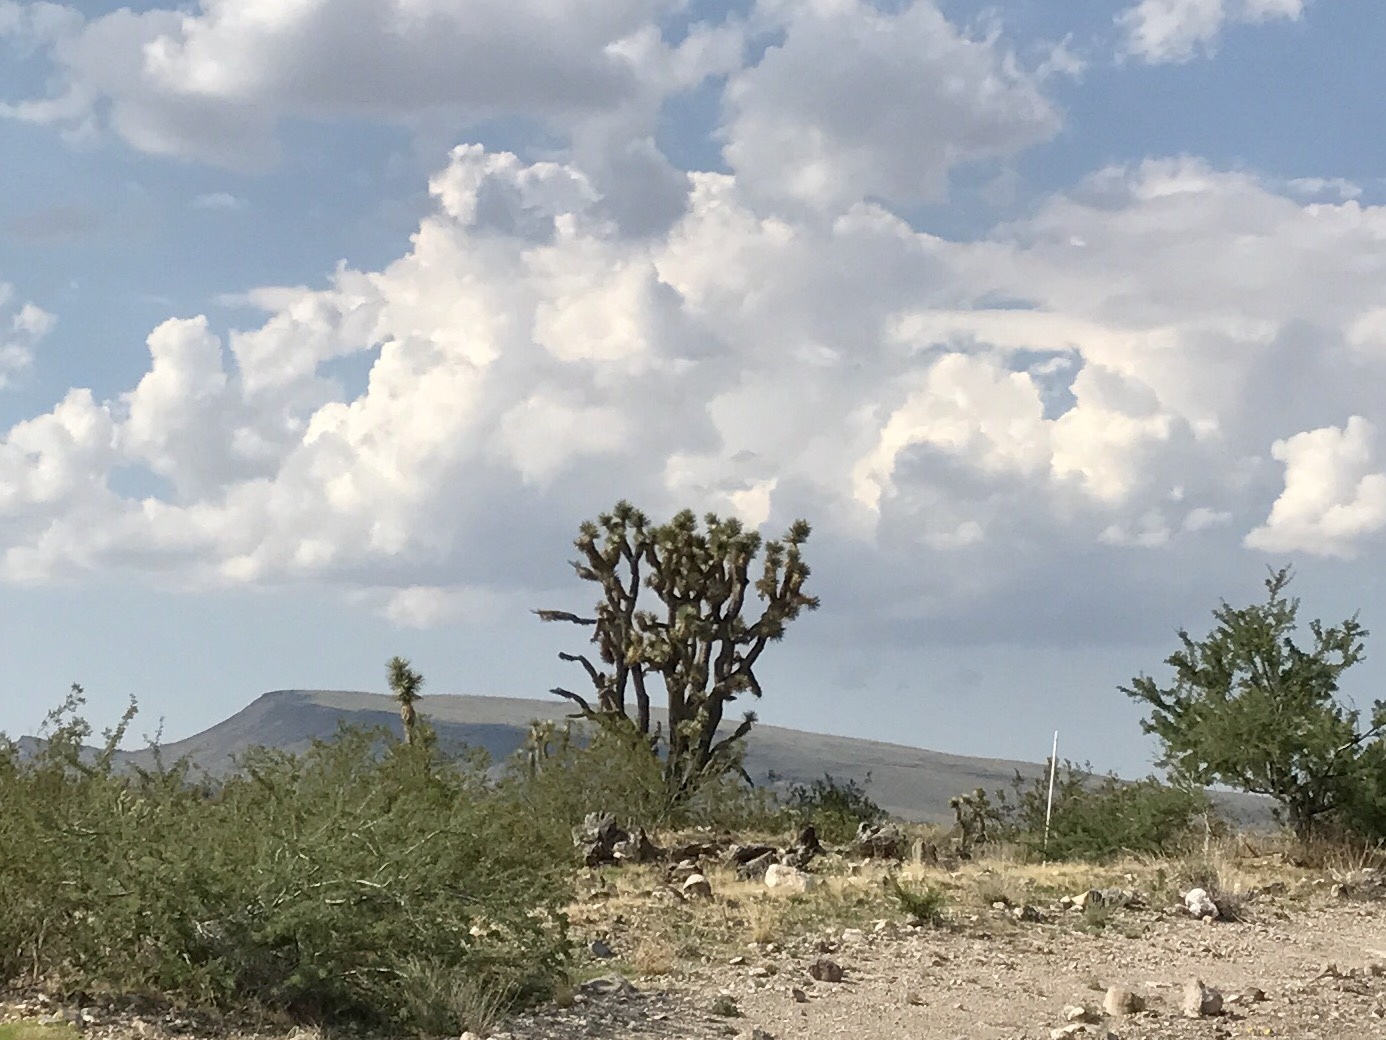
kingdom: Plantae
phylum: Tracheophyta
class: Liliopsida
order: Asparagales
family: Asparagaceae
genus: Yucca
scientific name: Yucca brevifolia
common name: Joshua tree
